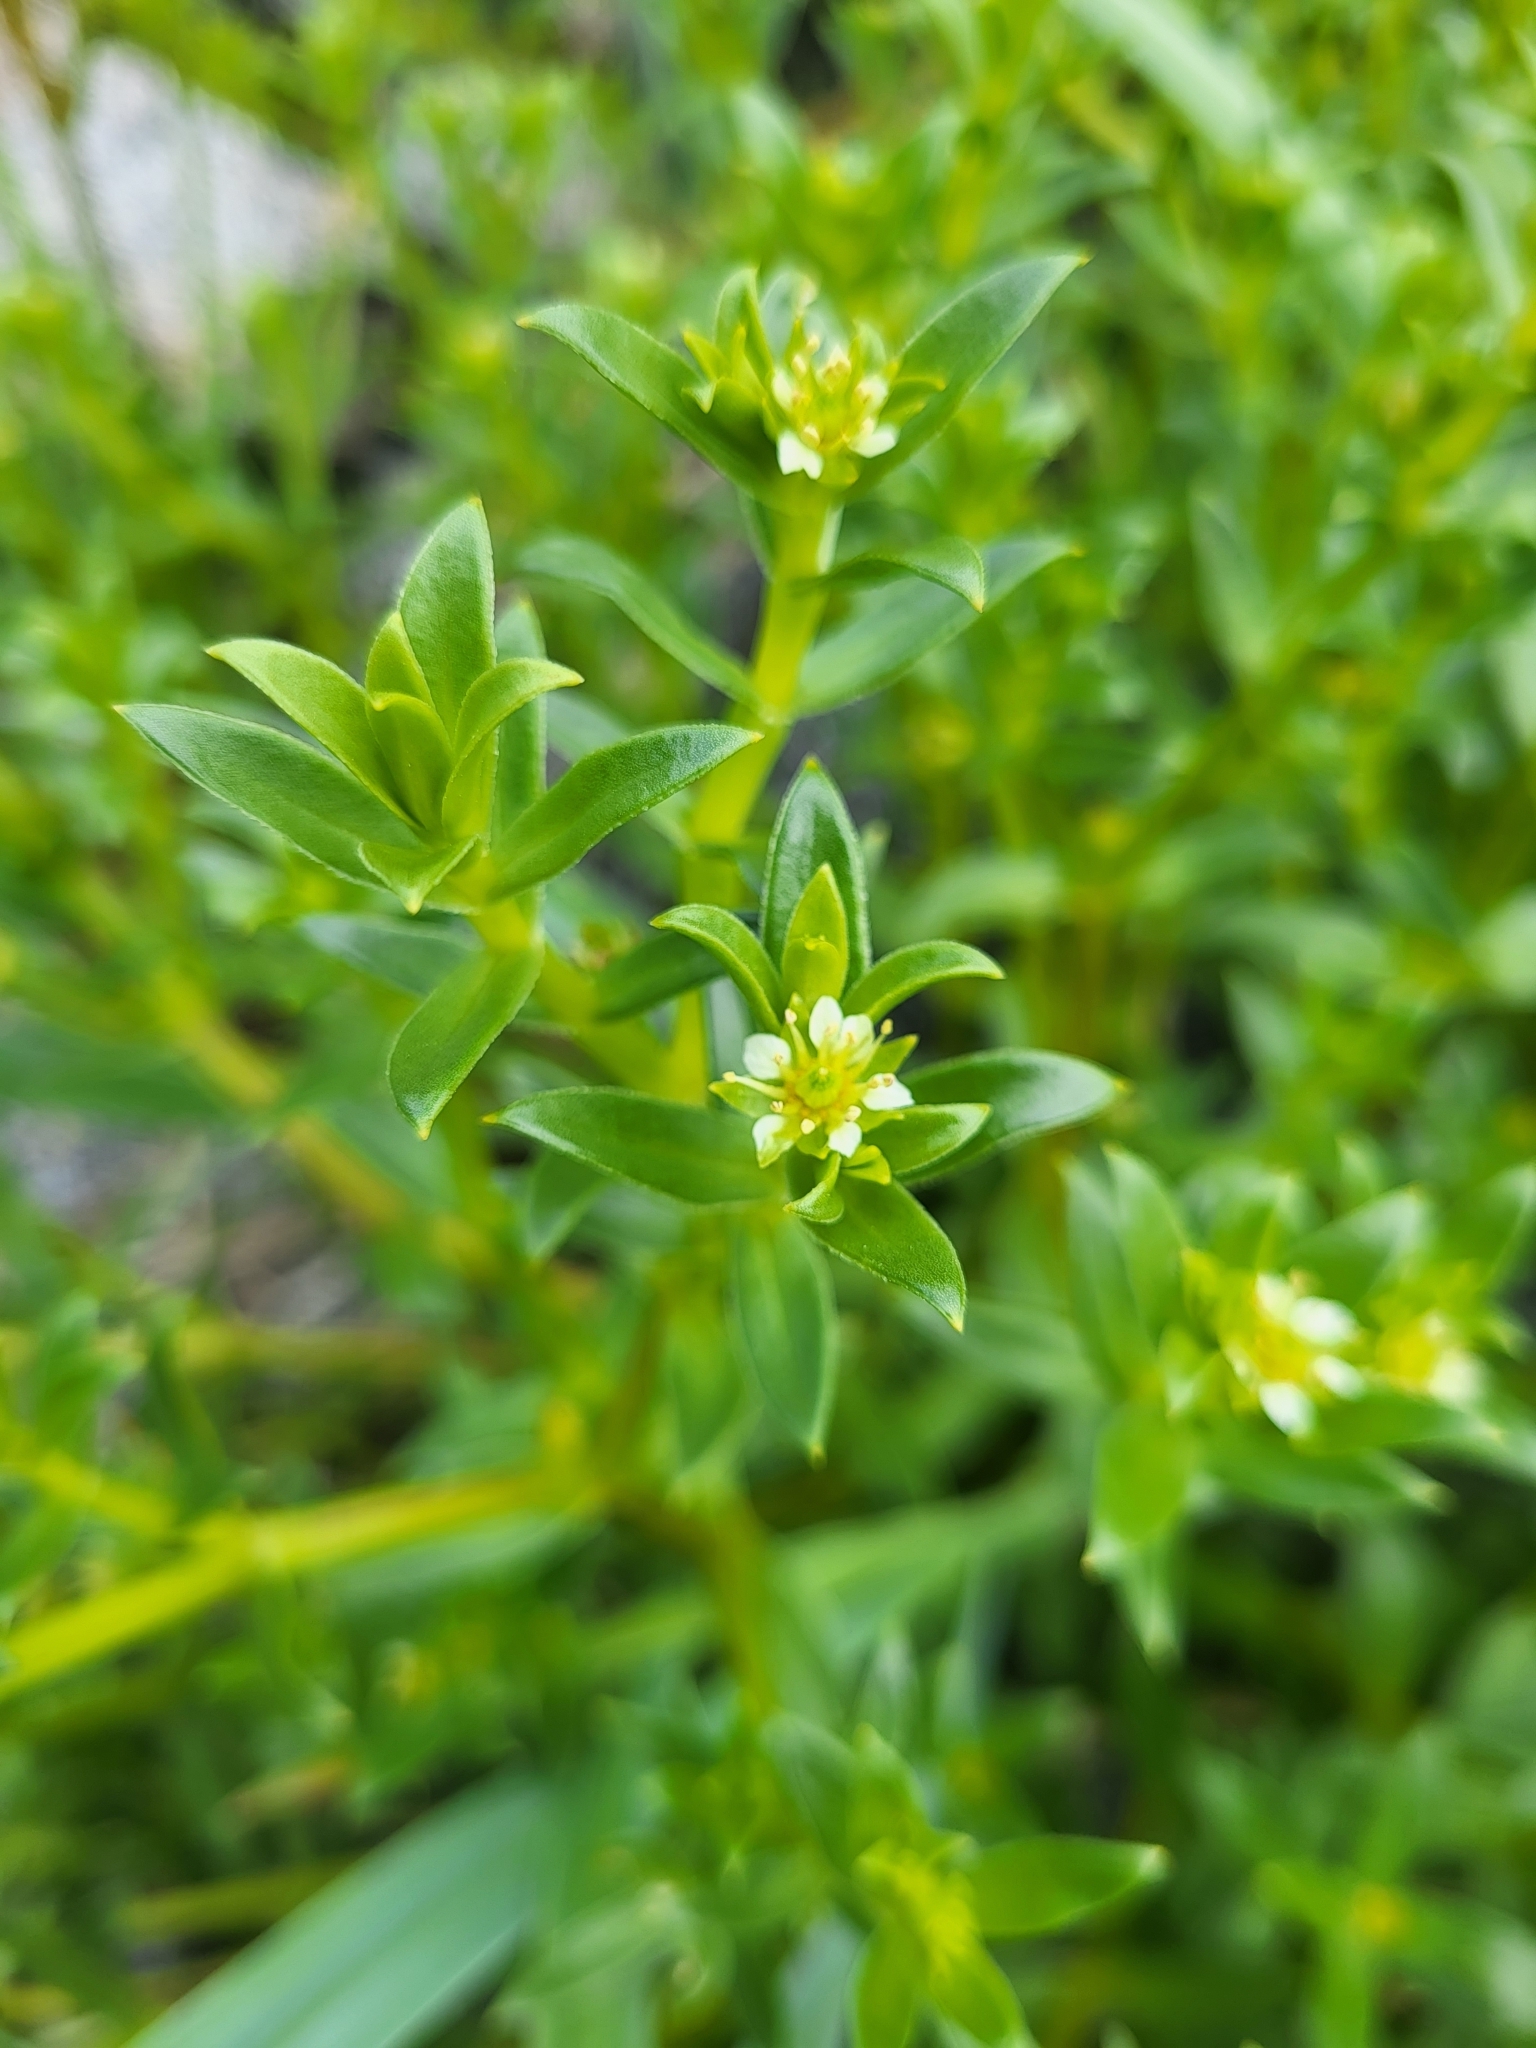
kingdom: Plantae
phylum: Tracheophyta
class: Magnoliopsida
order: Caryophyllales
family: Caryophyllaceae
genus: Honckenya
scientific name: Honckenya peploides
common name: Sea sandwort
